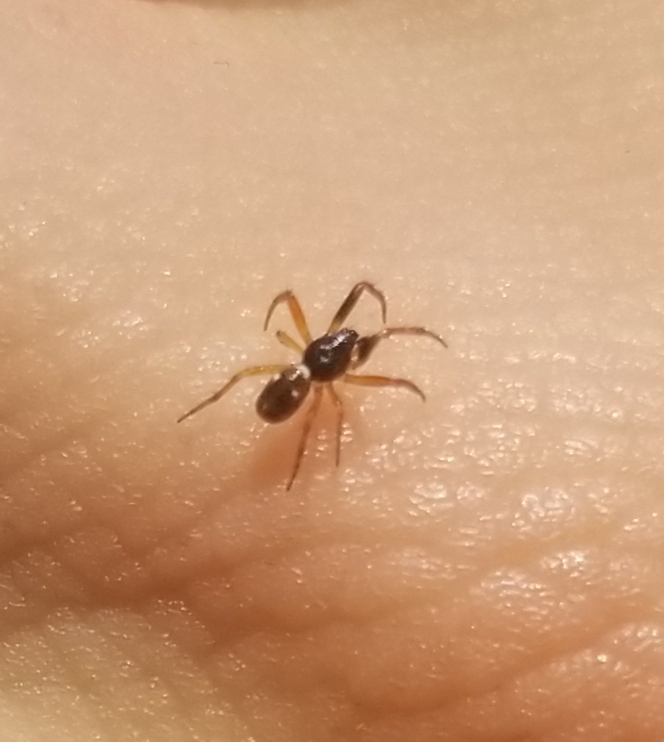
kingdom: Animalia
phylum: Arthropoda
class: Arachnida
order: Araneae
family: Araneidae
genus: Cyclosa
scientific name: Cyclosa turbinata
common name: Orb weavers
